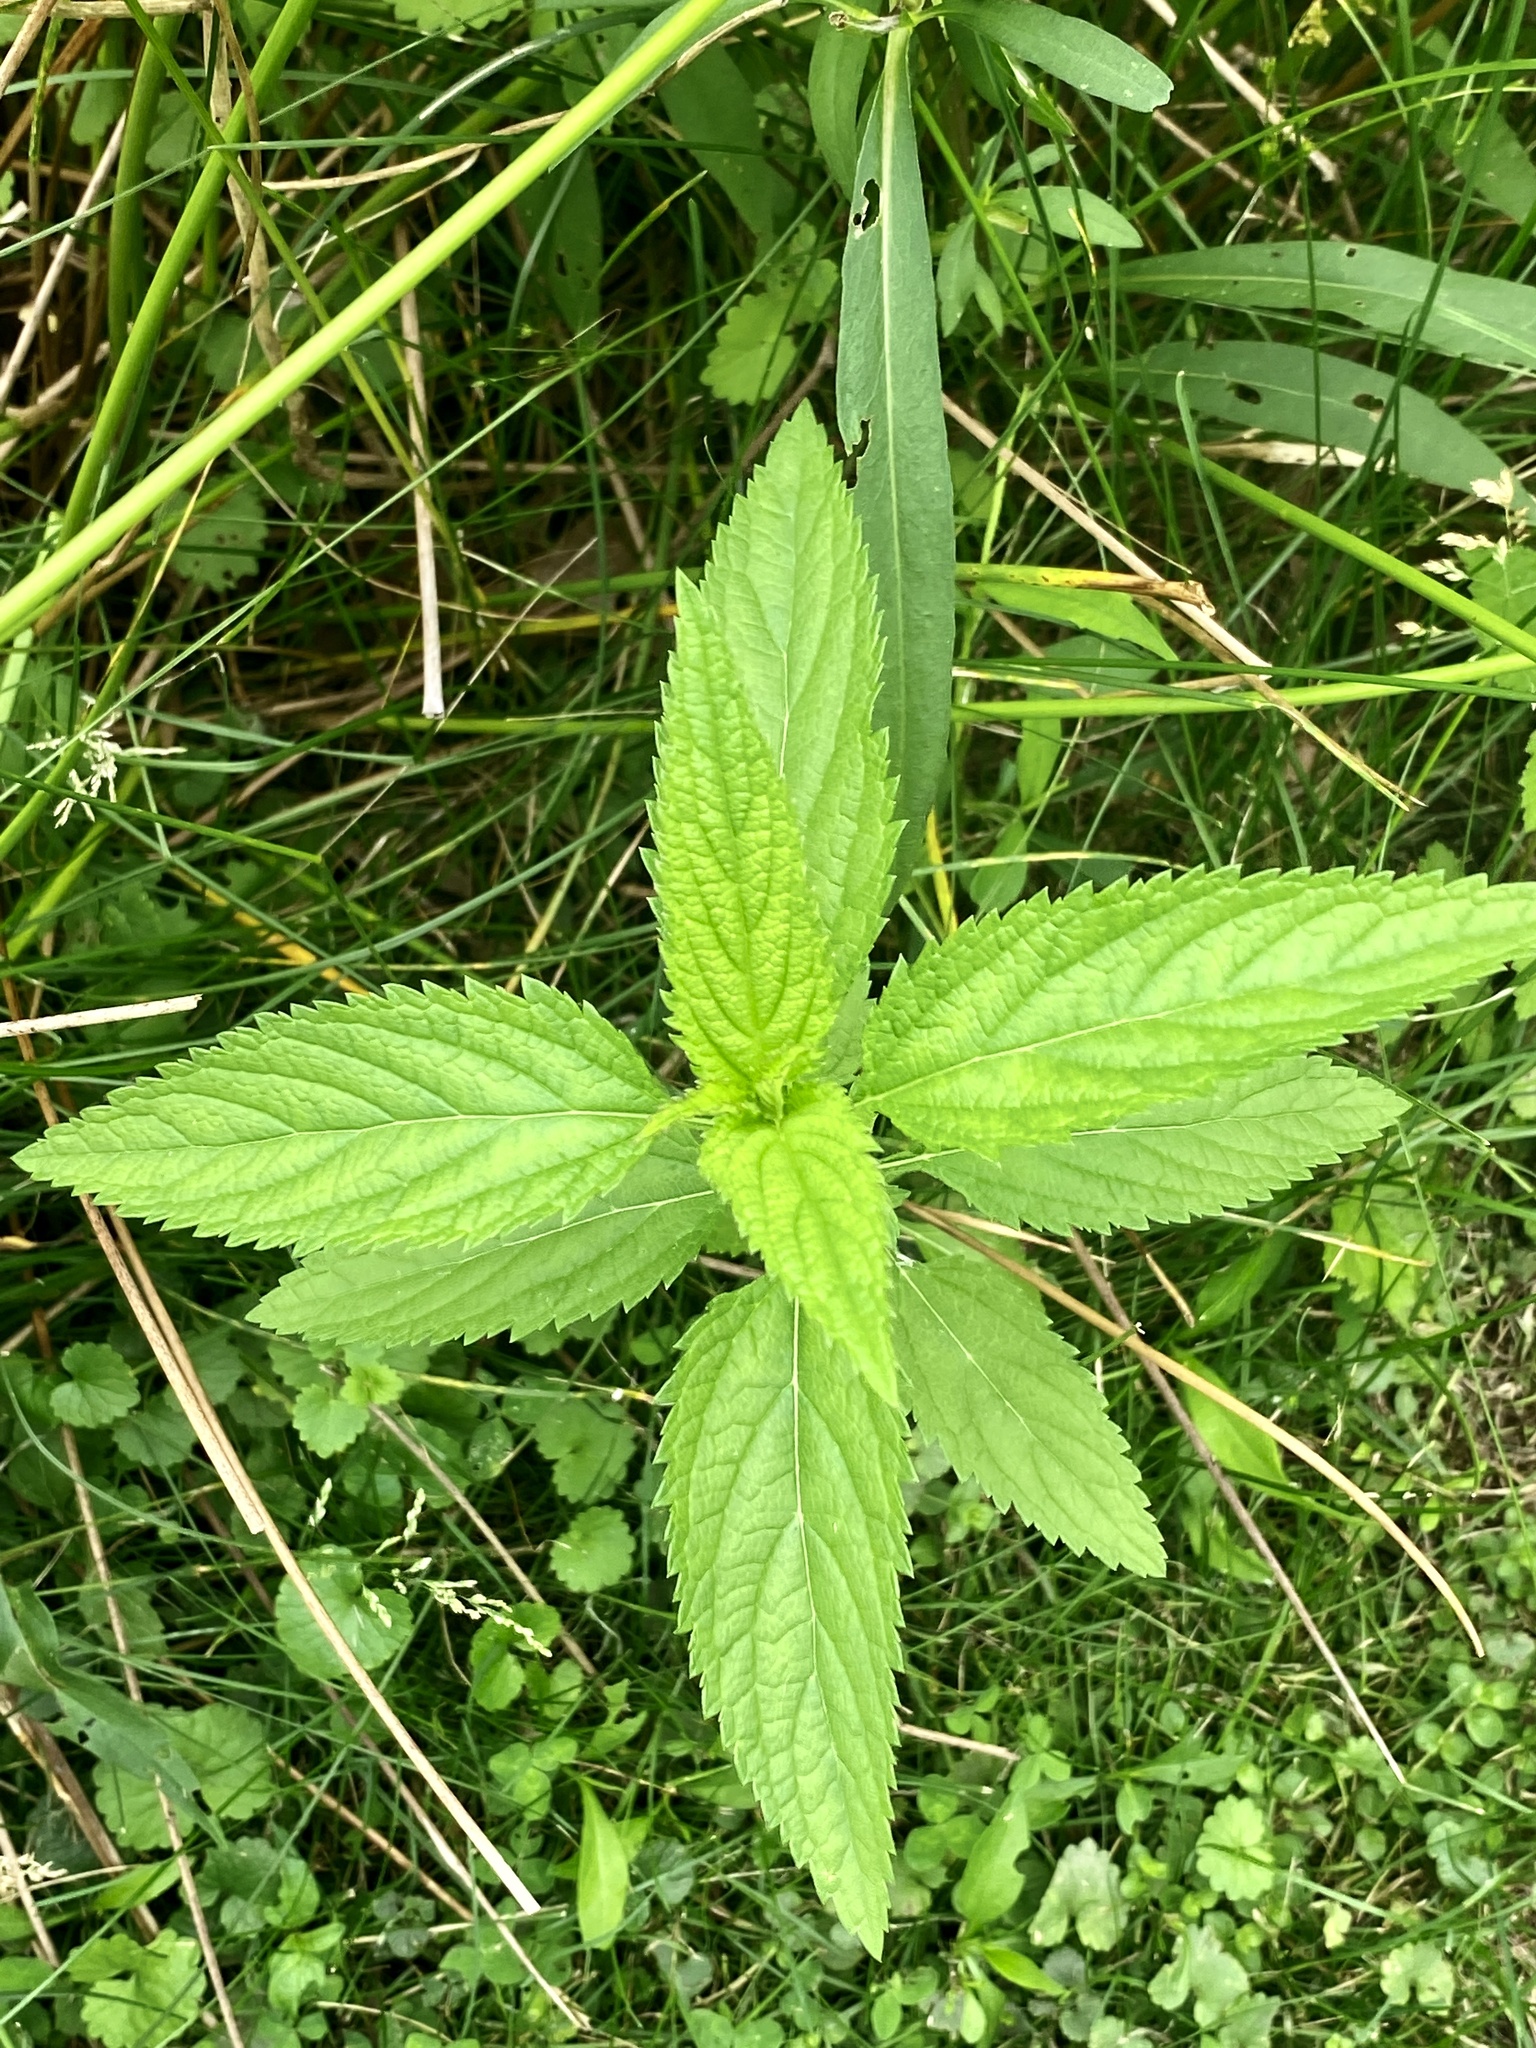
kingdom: Plantae
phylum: Tracheophyta
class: Magnoliopsida
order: Lamiales
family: Verbenaceae
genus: Verbena
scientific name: Verbena hastata
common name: American blue vervain
